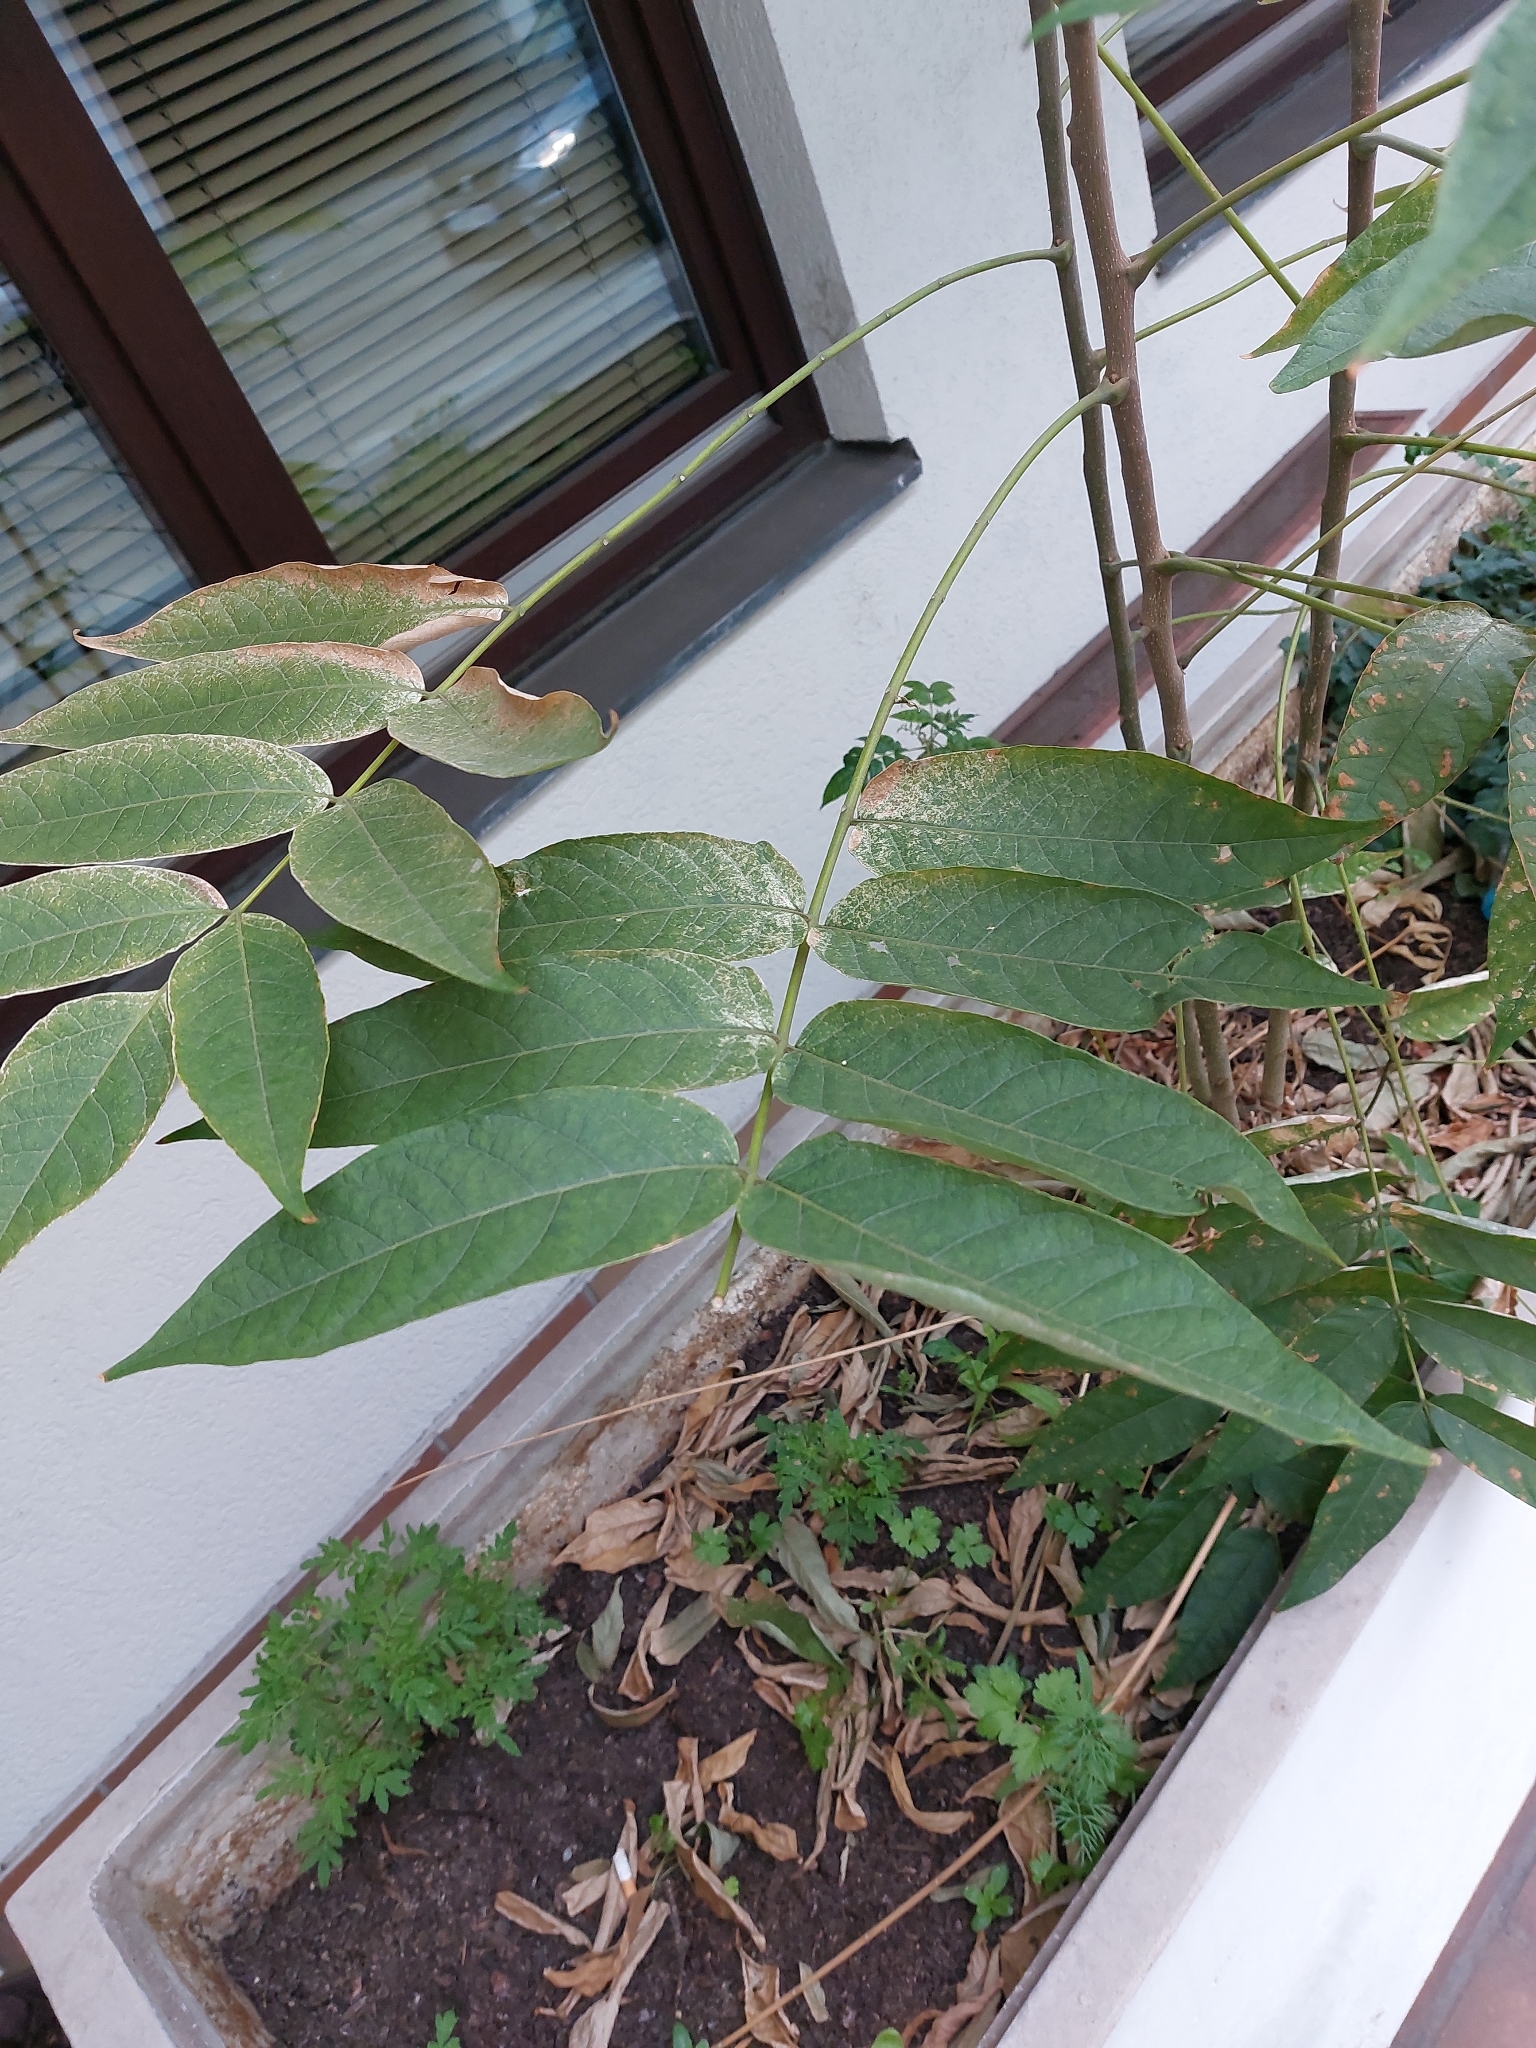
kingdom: Plantae
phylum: Tracheophyta
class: Magnoliopsida
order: Sapindales
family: Simaroubaceae
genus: Ailanthus
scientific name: Ailanthus altissima
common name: Tree-of-heaven
